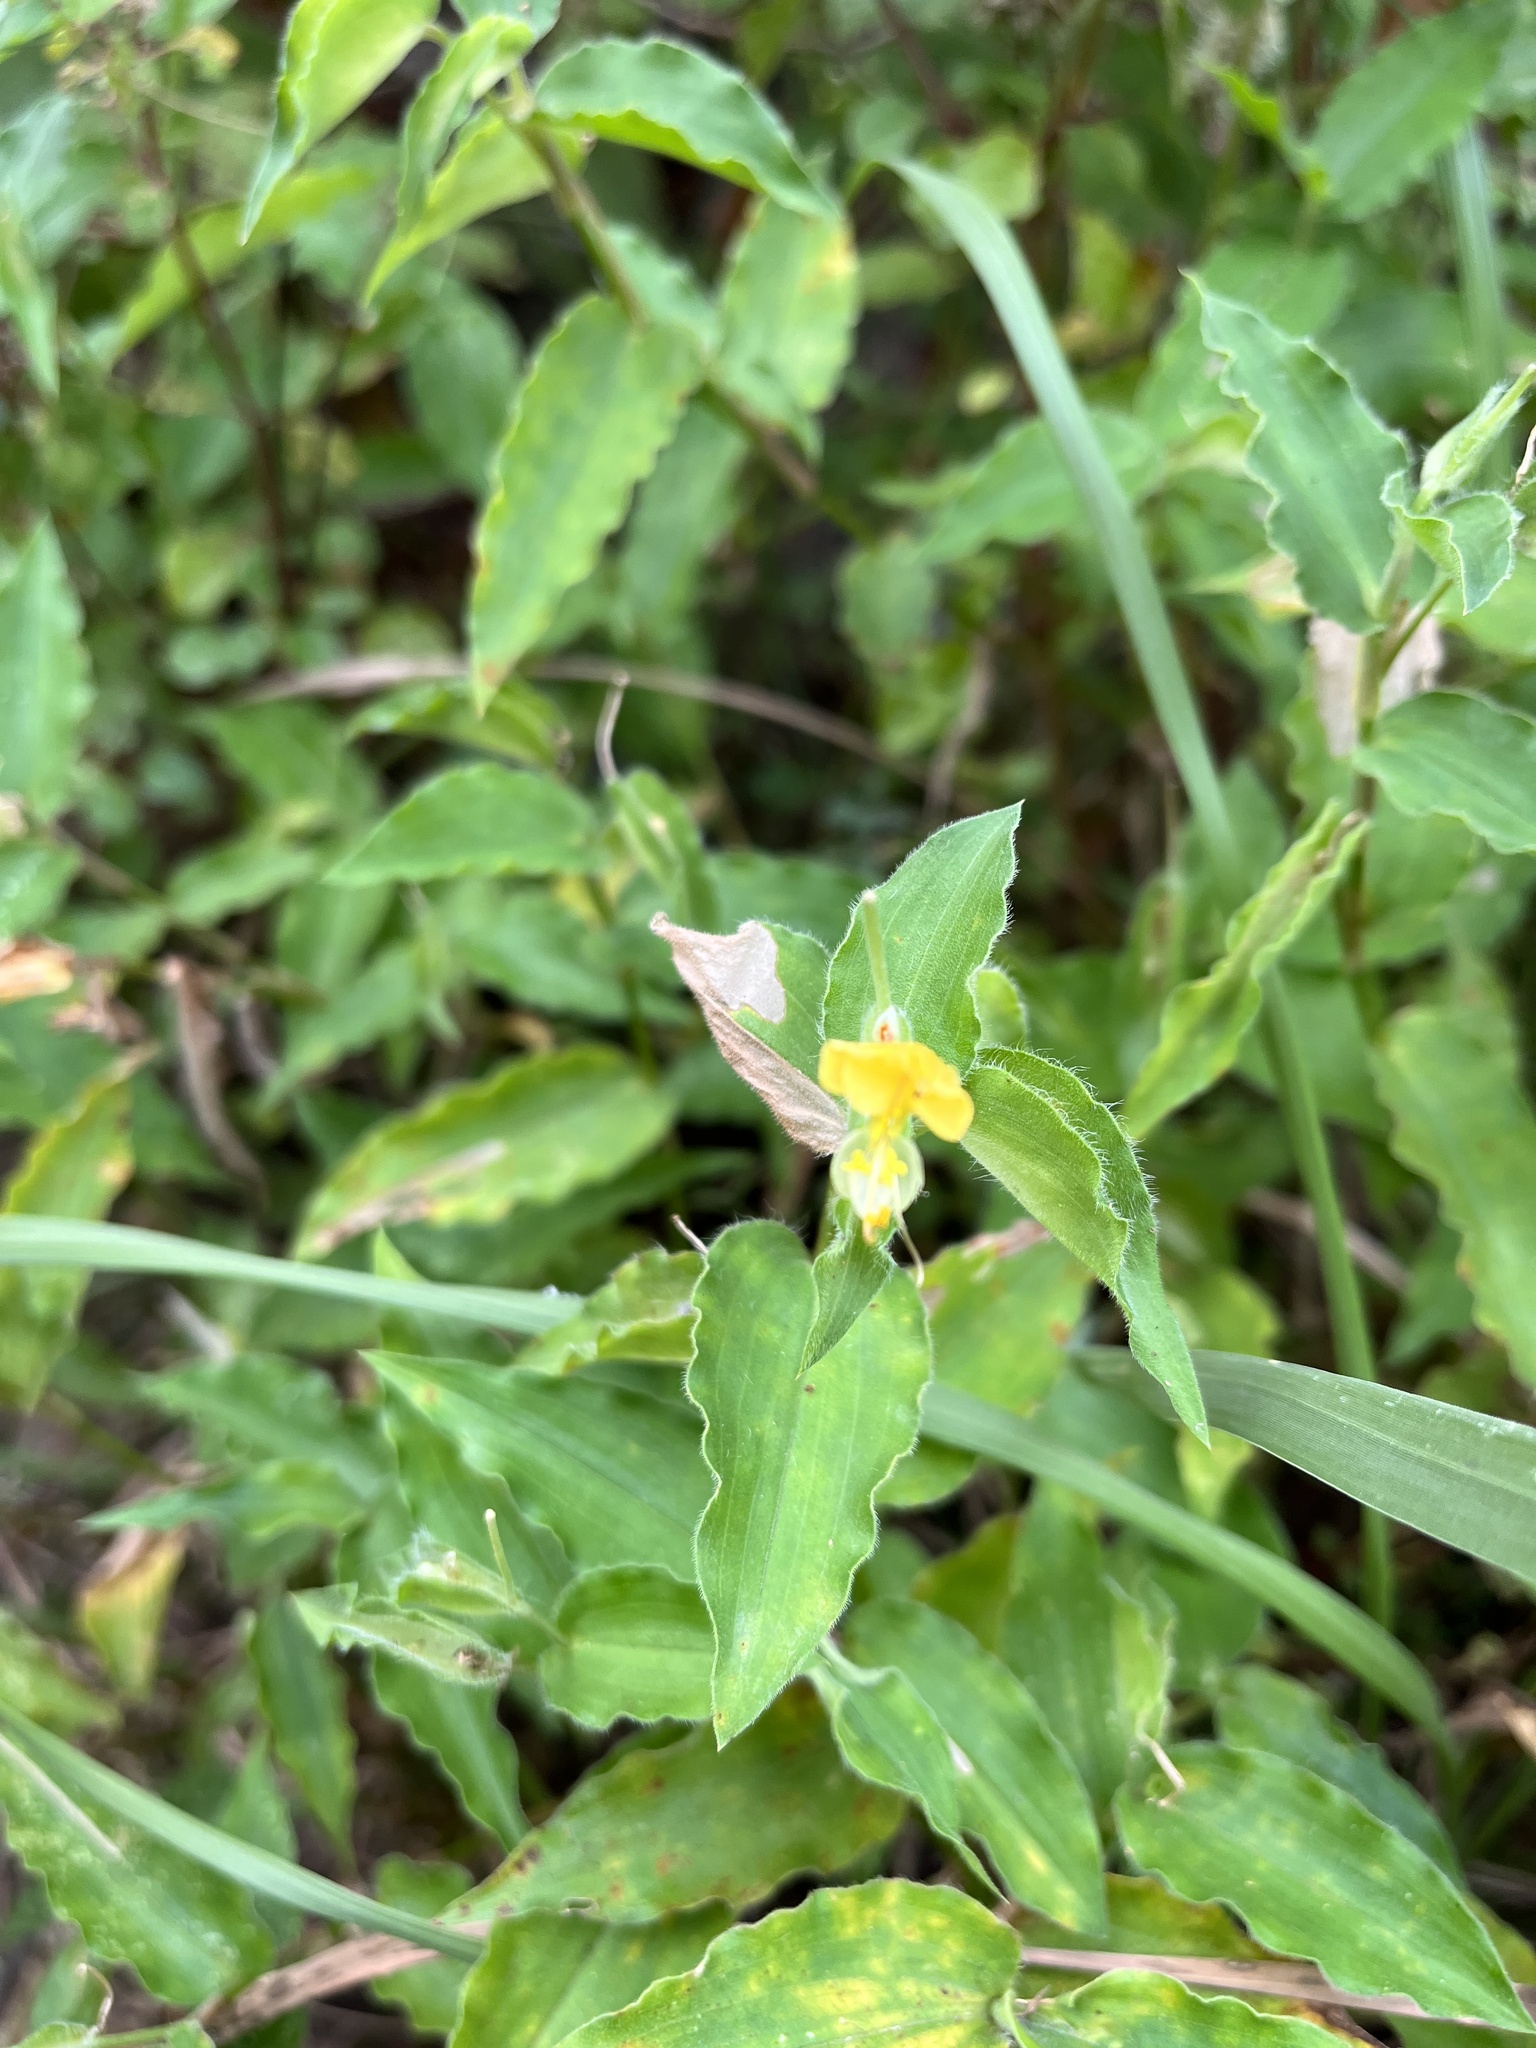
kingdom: Plantae
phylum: Tracheophyta
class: Liliopsida
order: Commelinales
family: Commelinaceae
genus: Commelina
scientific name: Commelina africana
